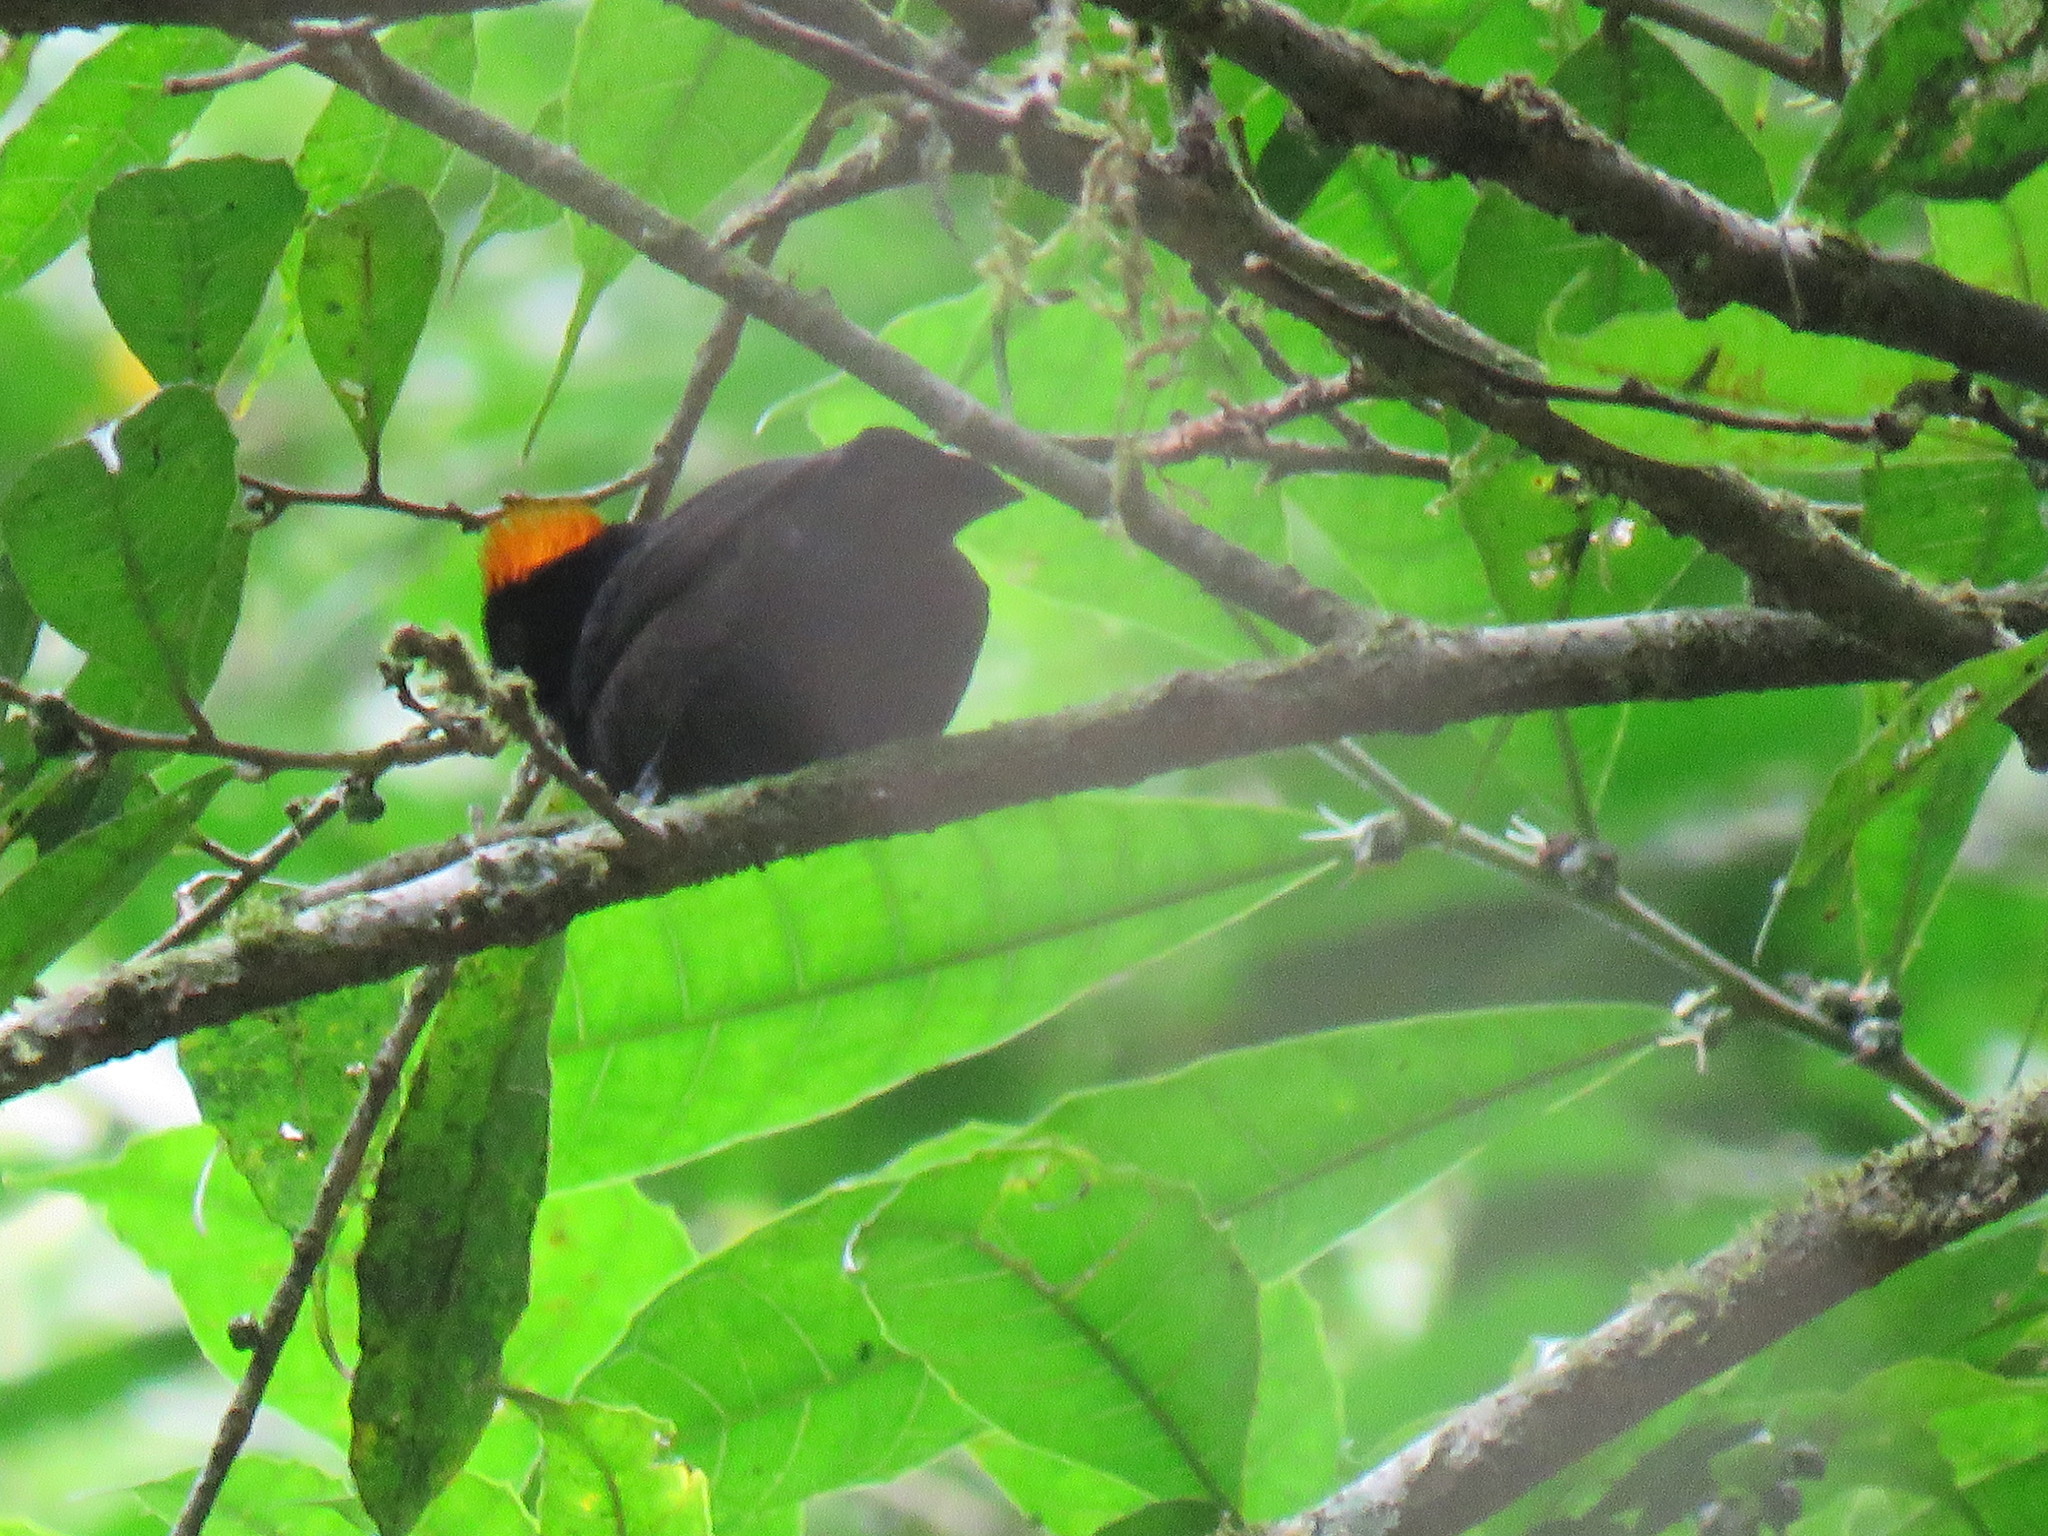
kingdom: Animalia
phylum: Chordata
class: Aves
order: Passeriformes
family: Thraupidae
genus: Tachyphonus
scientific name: Tachyphonus delatrii
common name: Tawny-crested tanager
